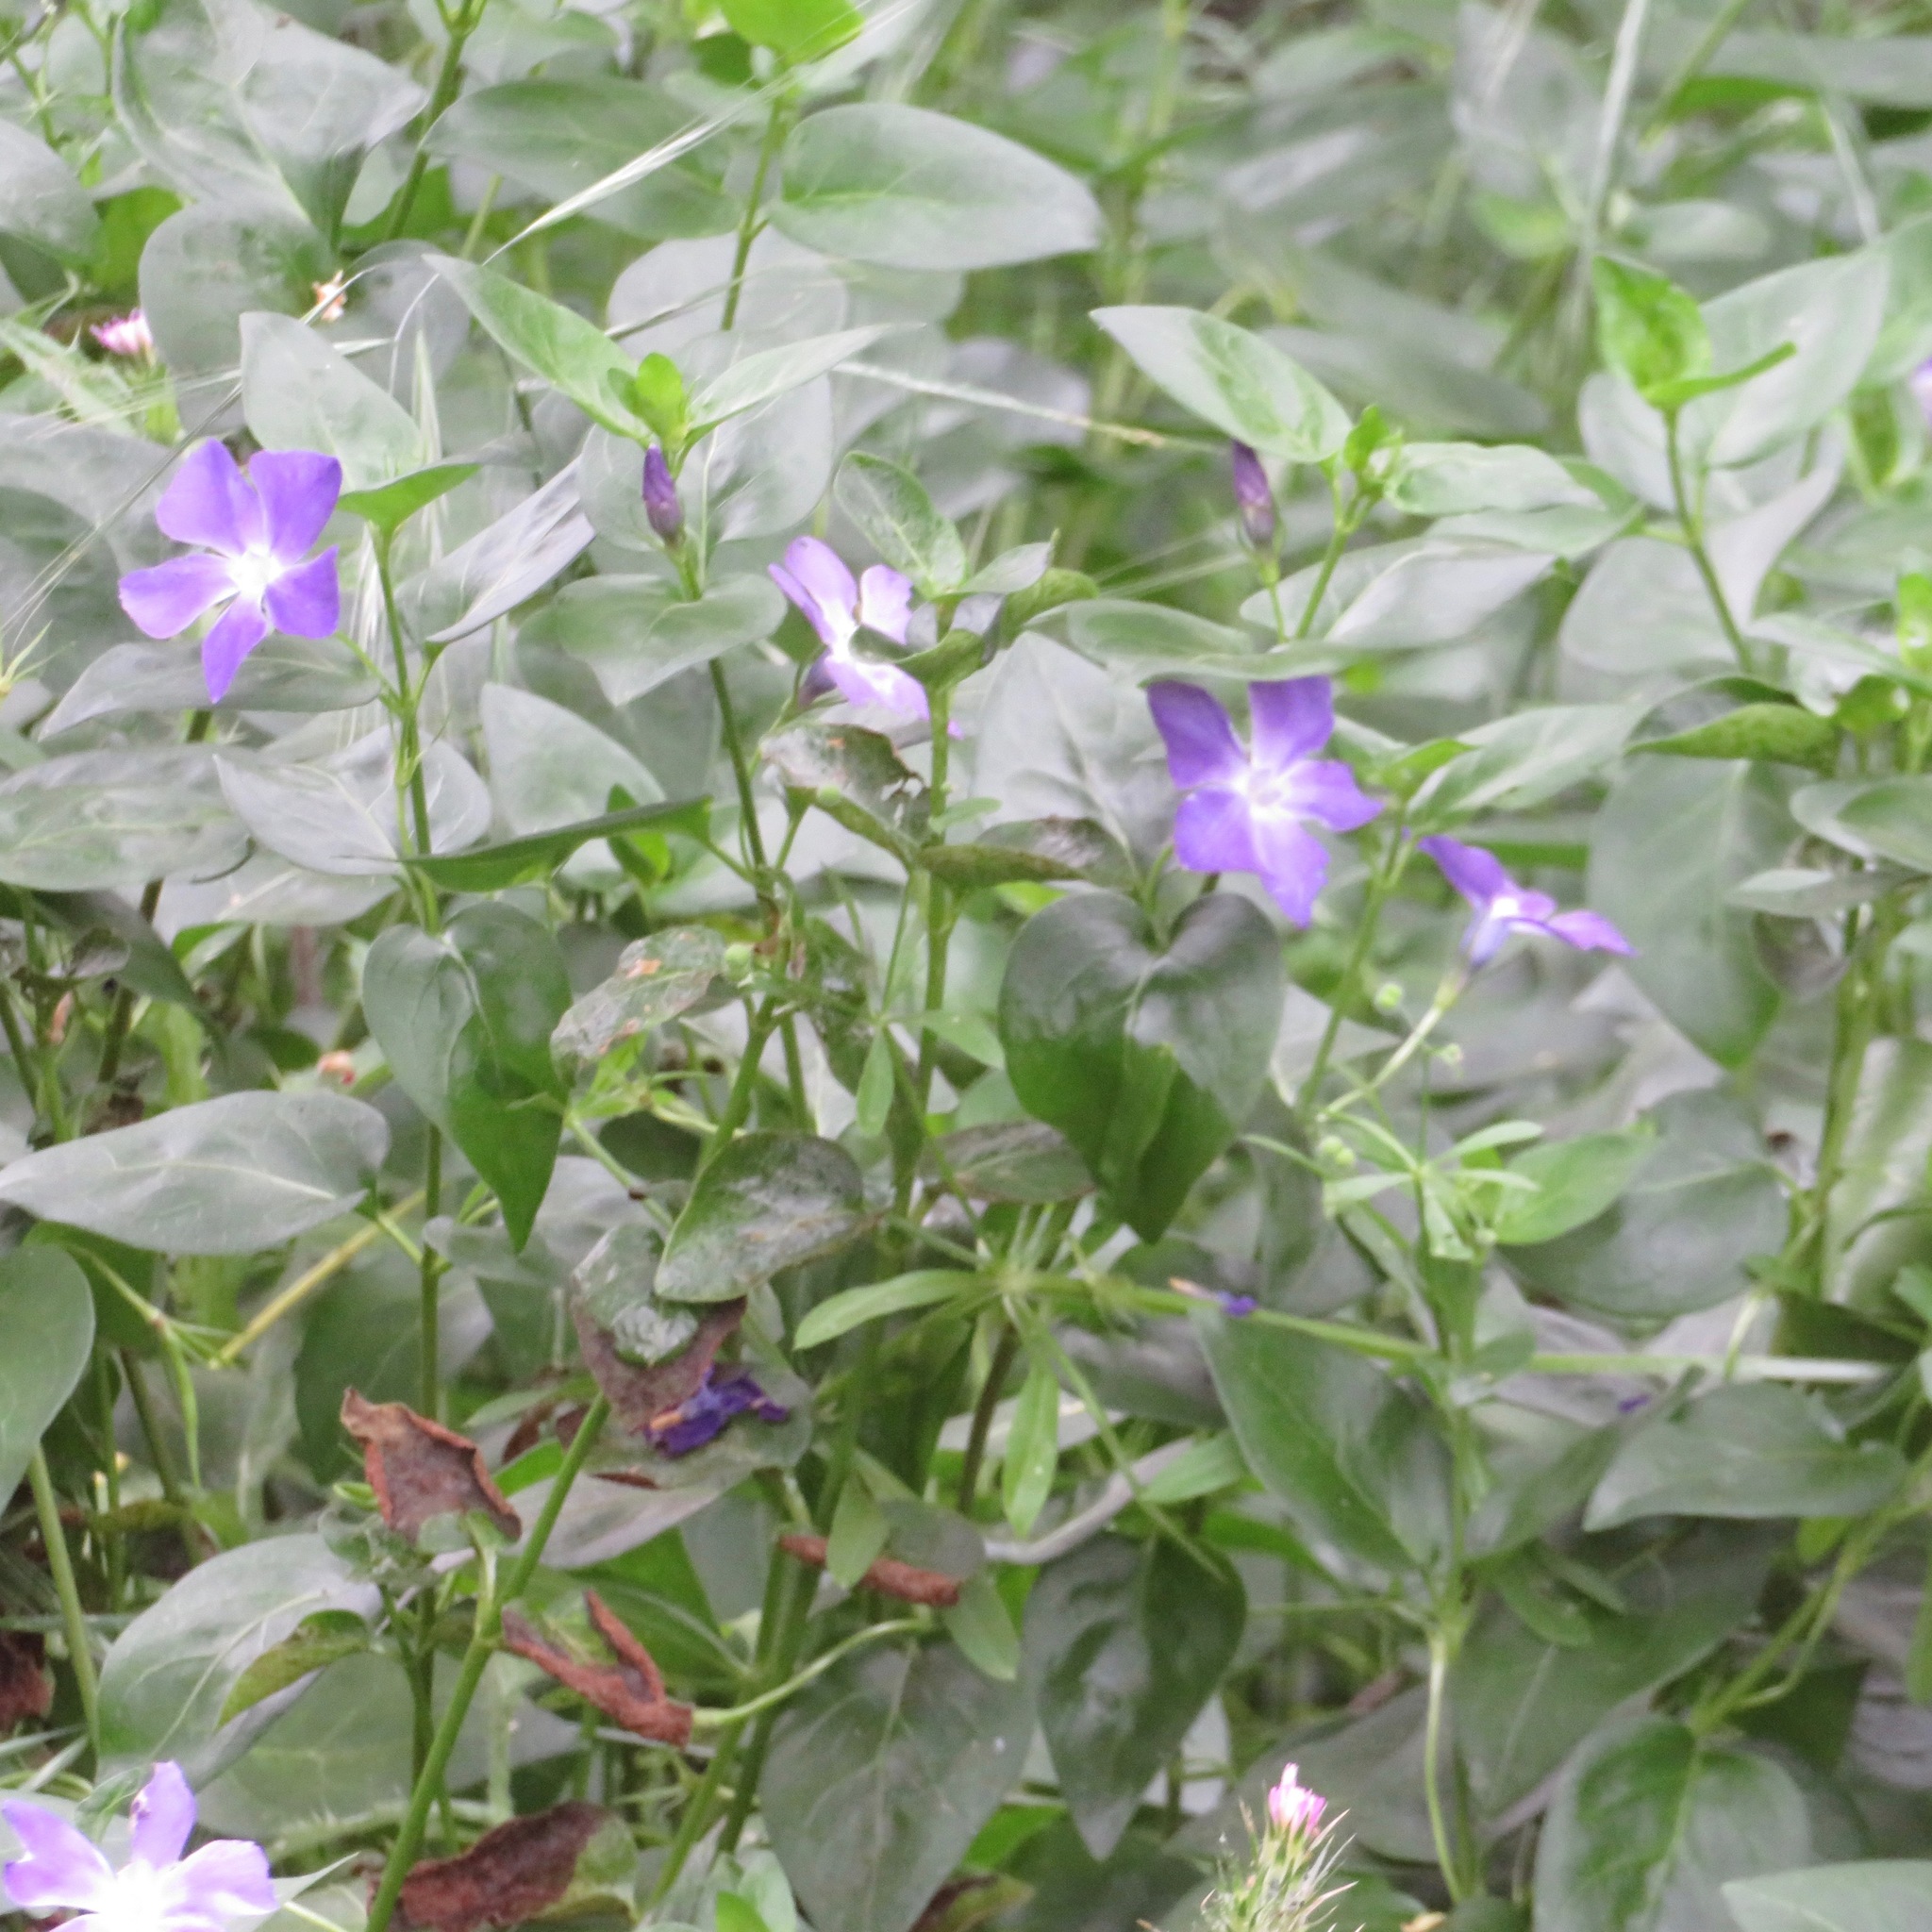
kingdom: Plantae
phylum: Tracheophyta
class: Magnoliopsida
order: Gentianales
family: Apocynaceae
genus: Vinca
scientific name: Vinca major
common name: Greater periwinkle
